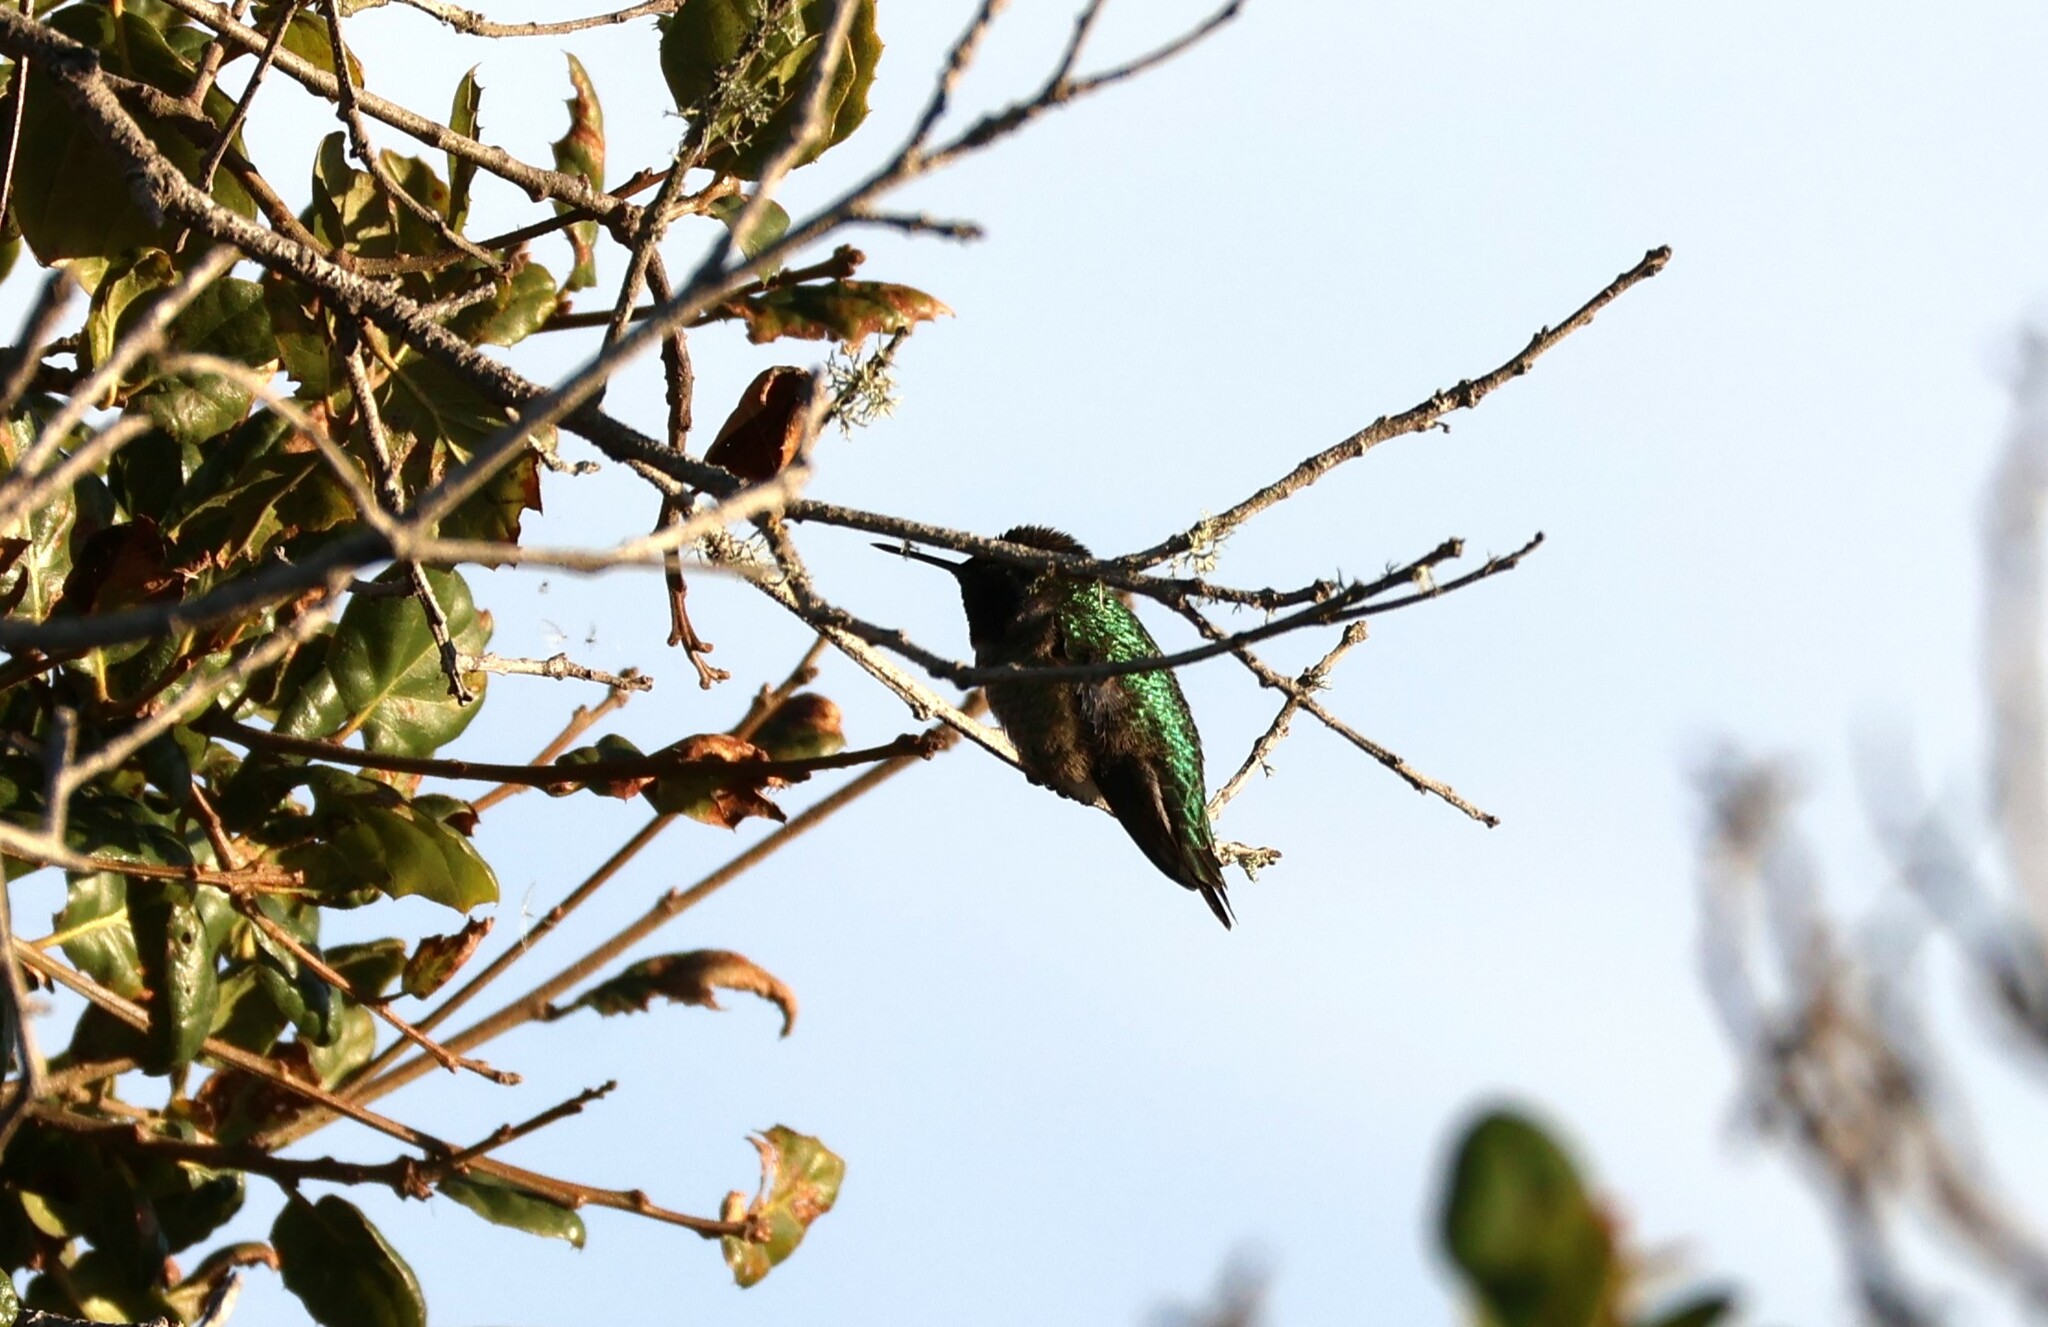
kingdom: Animalia
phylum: Chordata
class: Aves
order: Apodiformes
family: Trochilidae
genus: Calypte
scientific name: Calypte anna
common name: Anna's hummingbird
